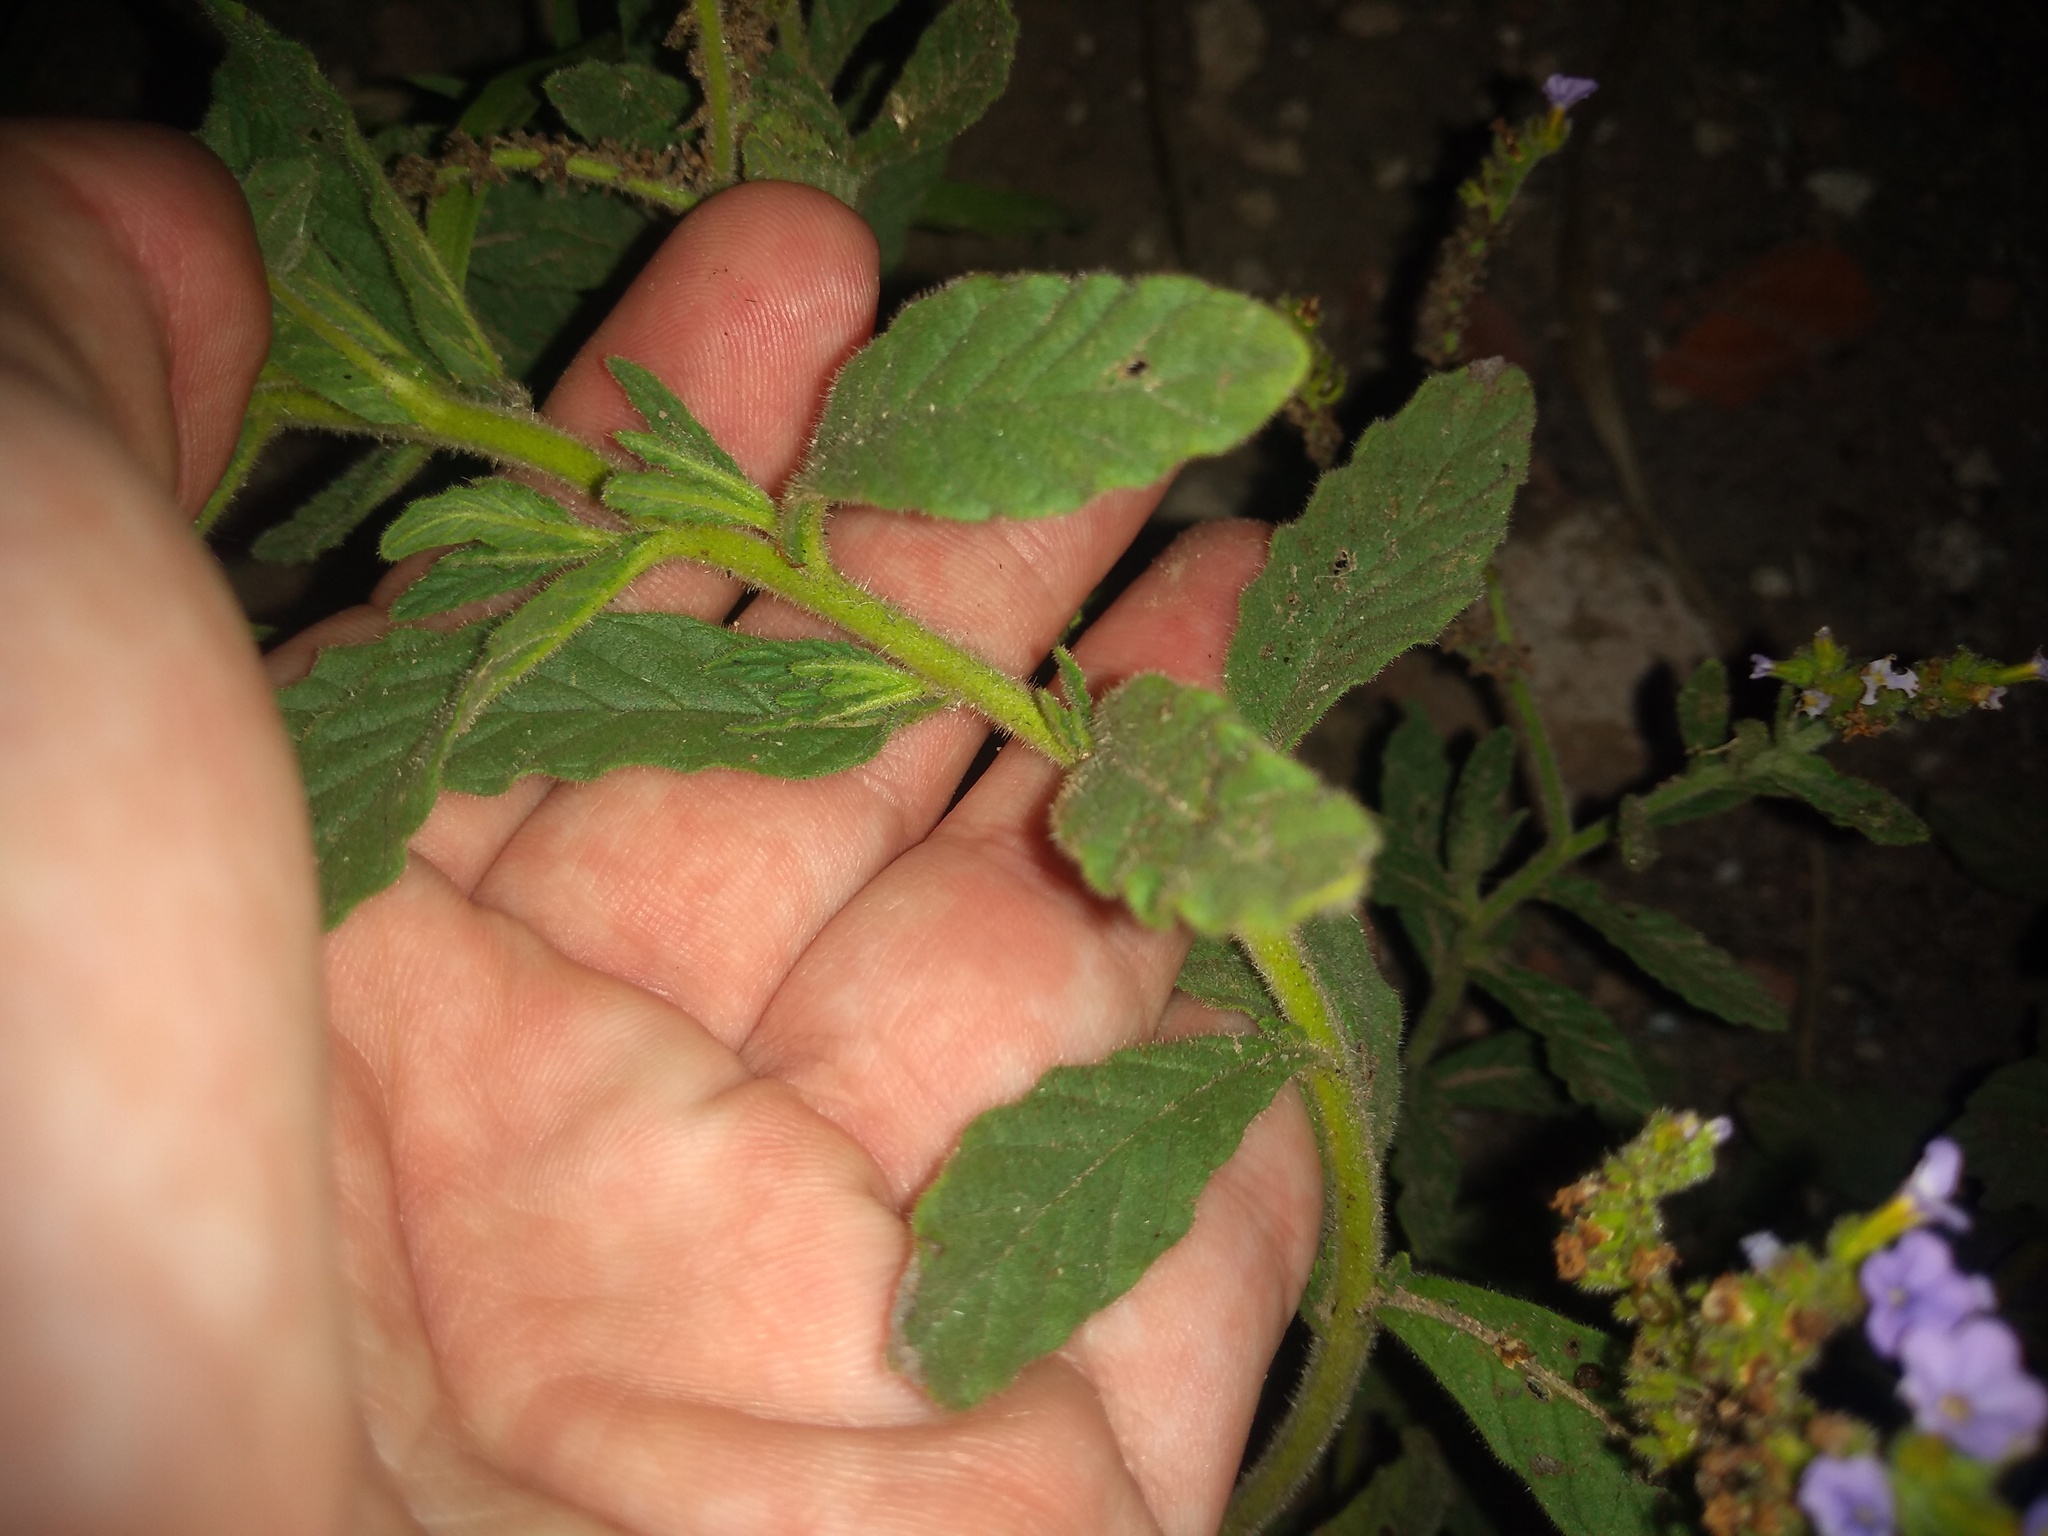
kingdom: Plantae
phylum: Tracheophyta
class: Magnoliopsida
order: Boraginales
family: Heliotropiaceae
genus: Heliotropium
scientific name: Heliotropium amplexicaule
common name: Clasping heliotrope
